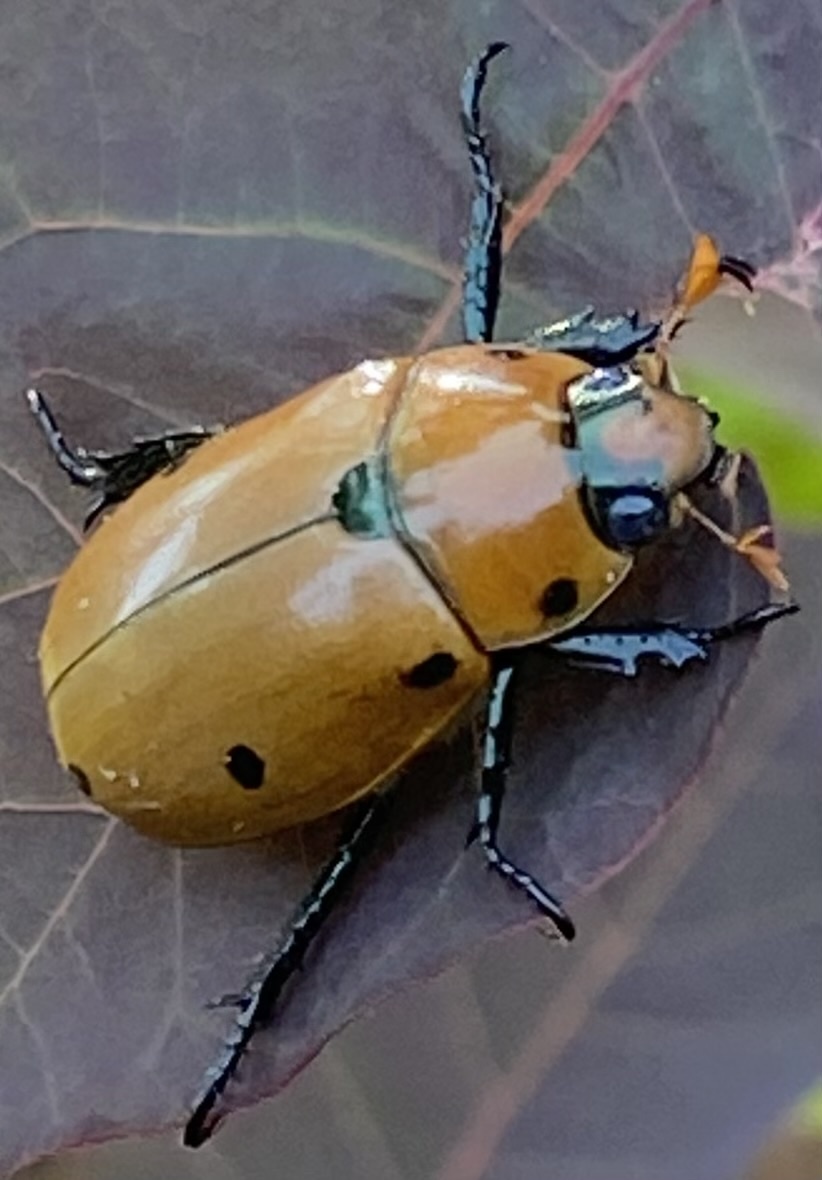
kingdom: Animalia
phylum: Arthropoda
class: Insecta
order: Coleoptera
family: Scarabaeidae
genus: Pelidnota
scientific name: Pelidnota punctata
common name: Grapevine beetle
